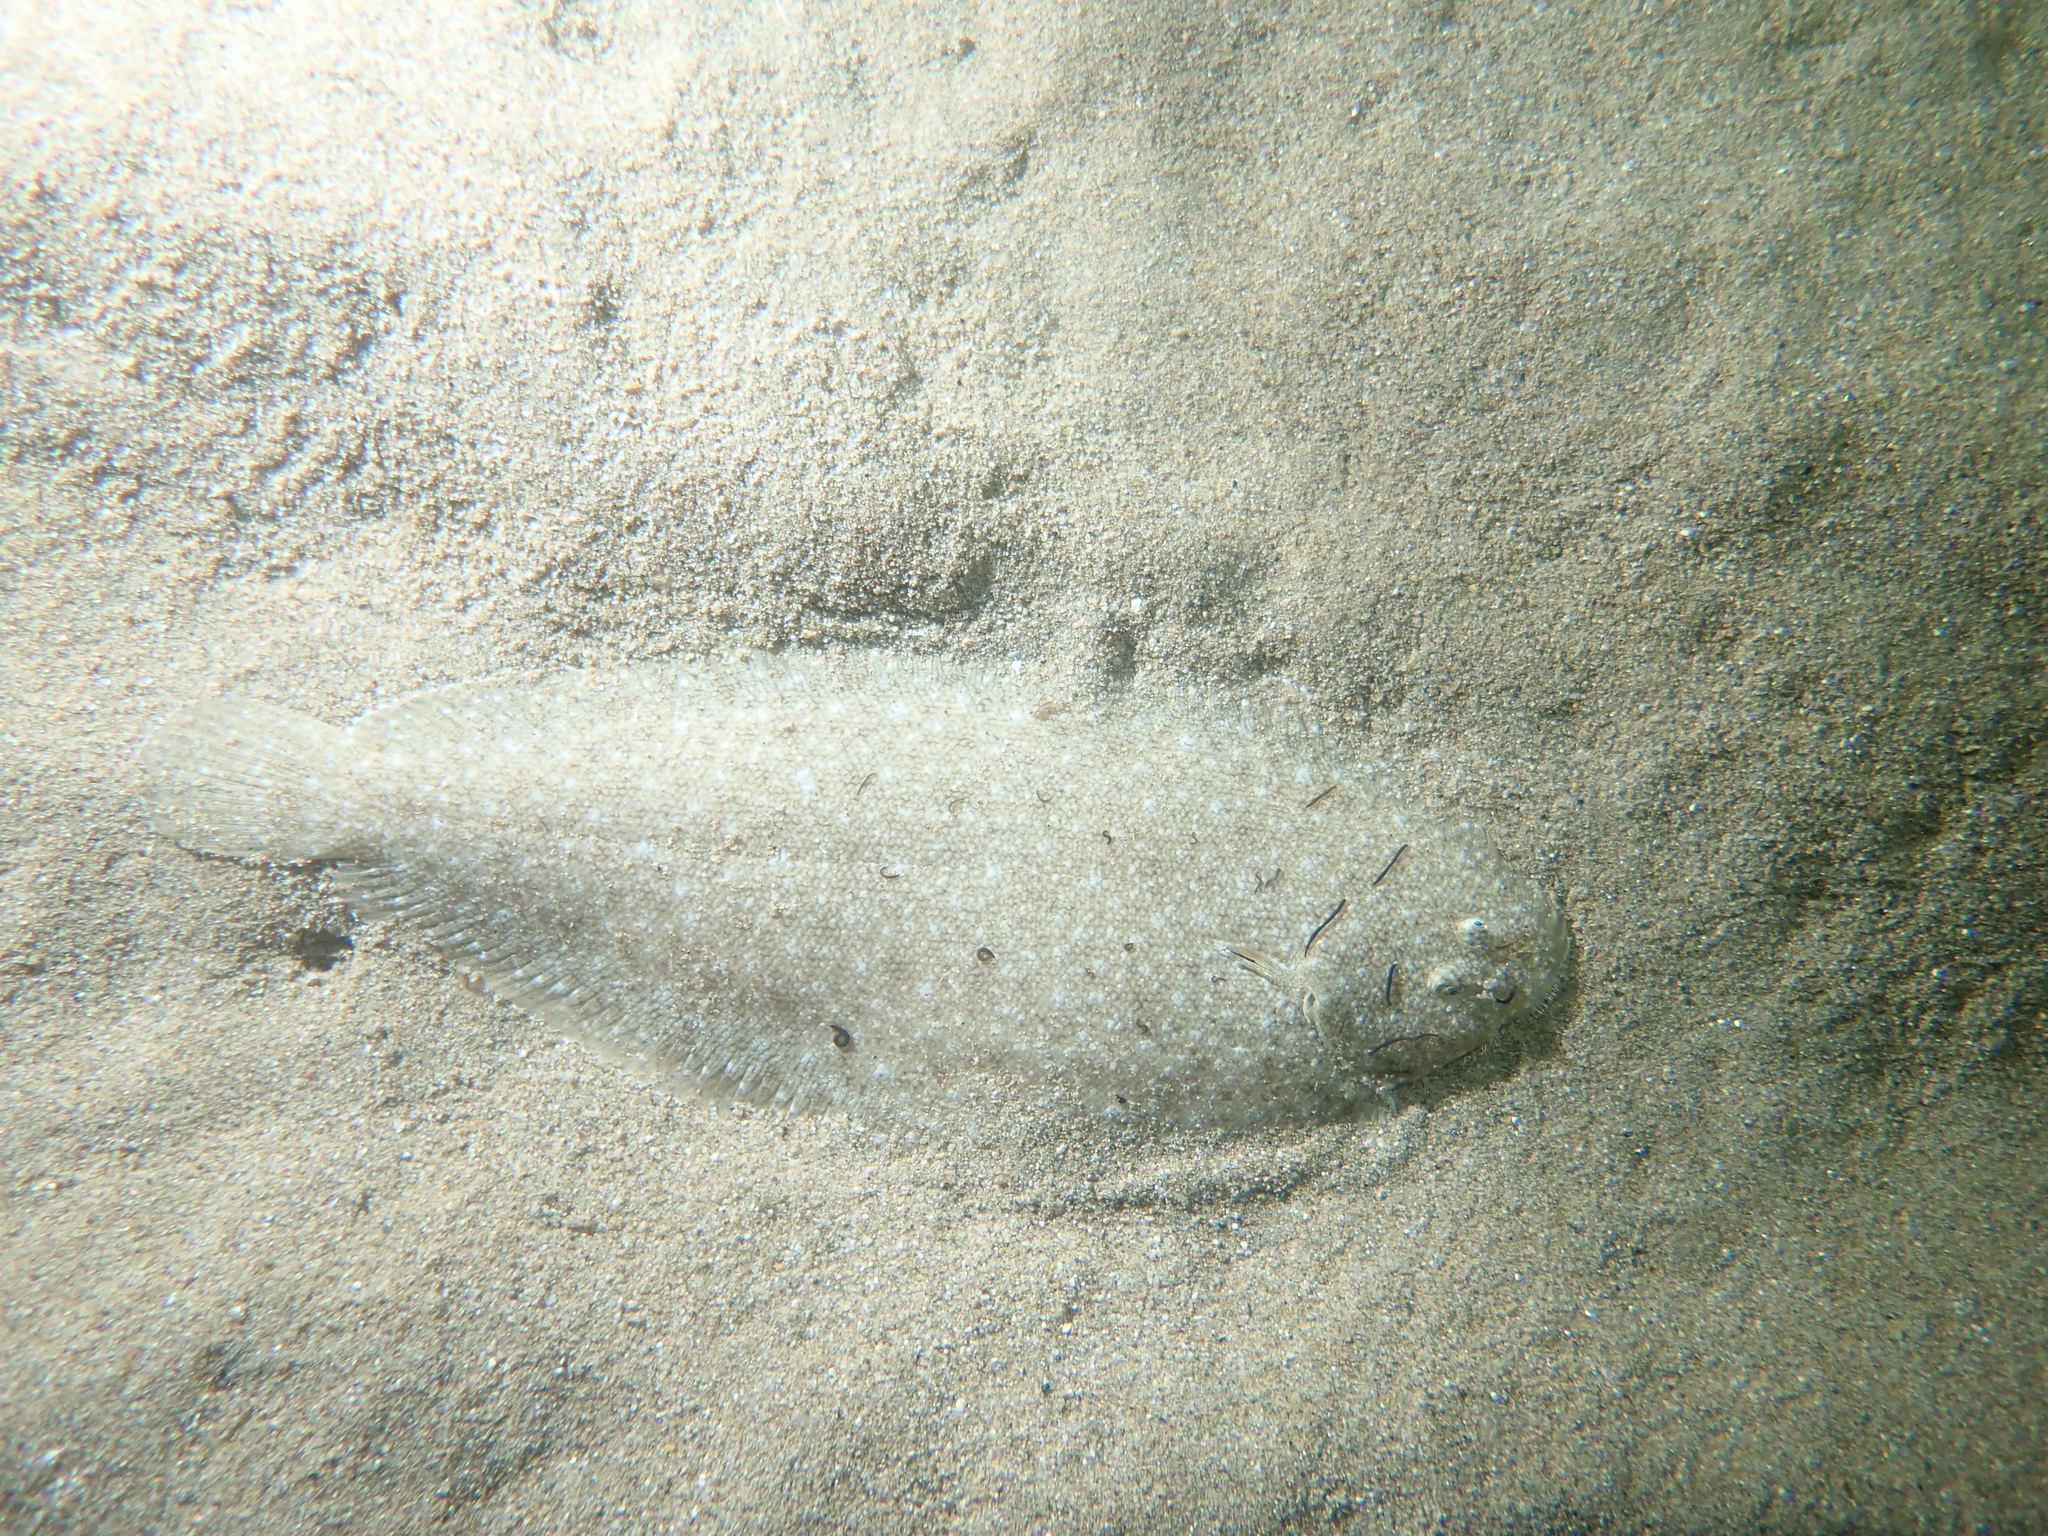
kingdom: Animalia
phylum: Chordata
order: Pleuronectiformes
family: Soleidae
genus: Pegusa
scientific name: Pegusa nasuta
